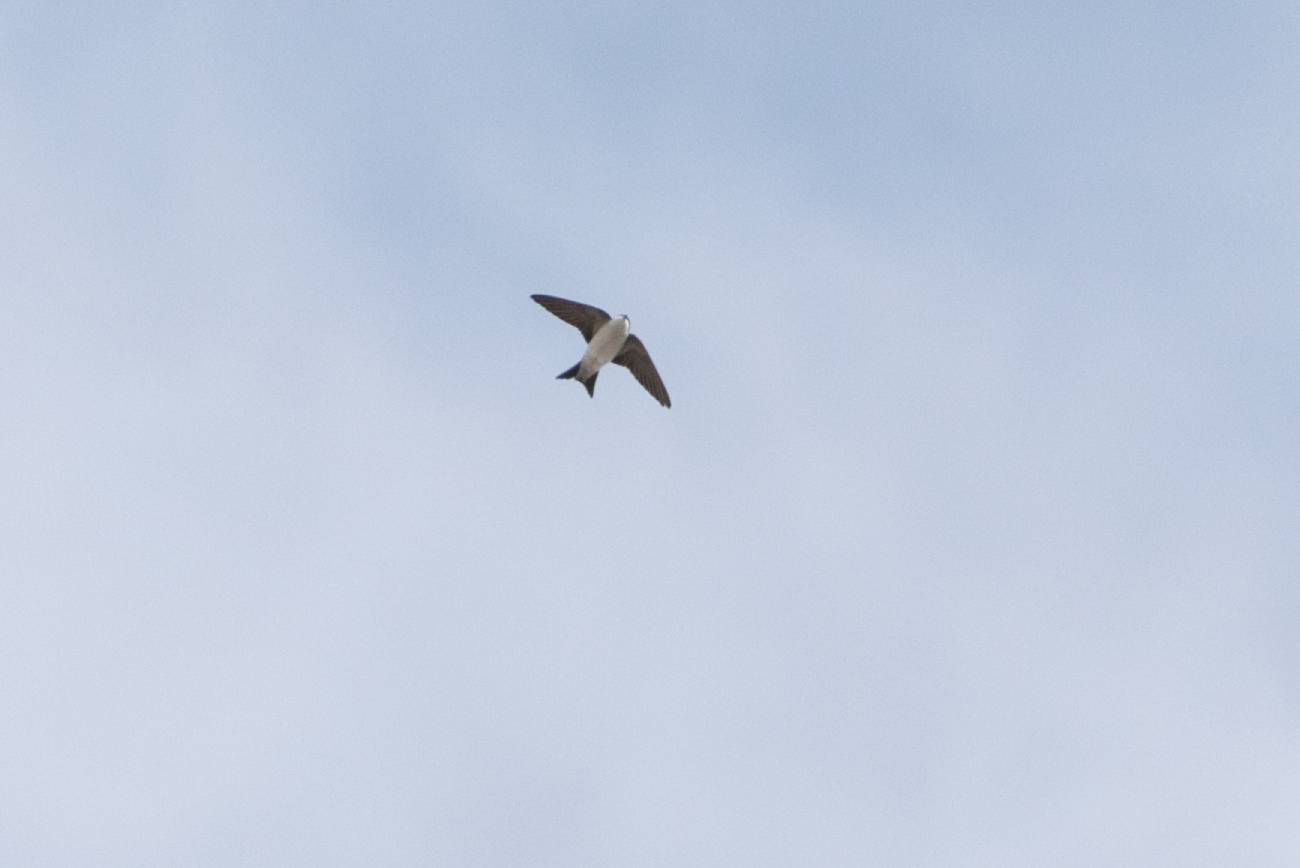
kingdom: Animalia
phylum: Chordata
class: Aves
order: Passeriformes
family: Hirundinidae
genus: Delichon
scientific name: Delichon urbicum
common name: Common house martin
